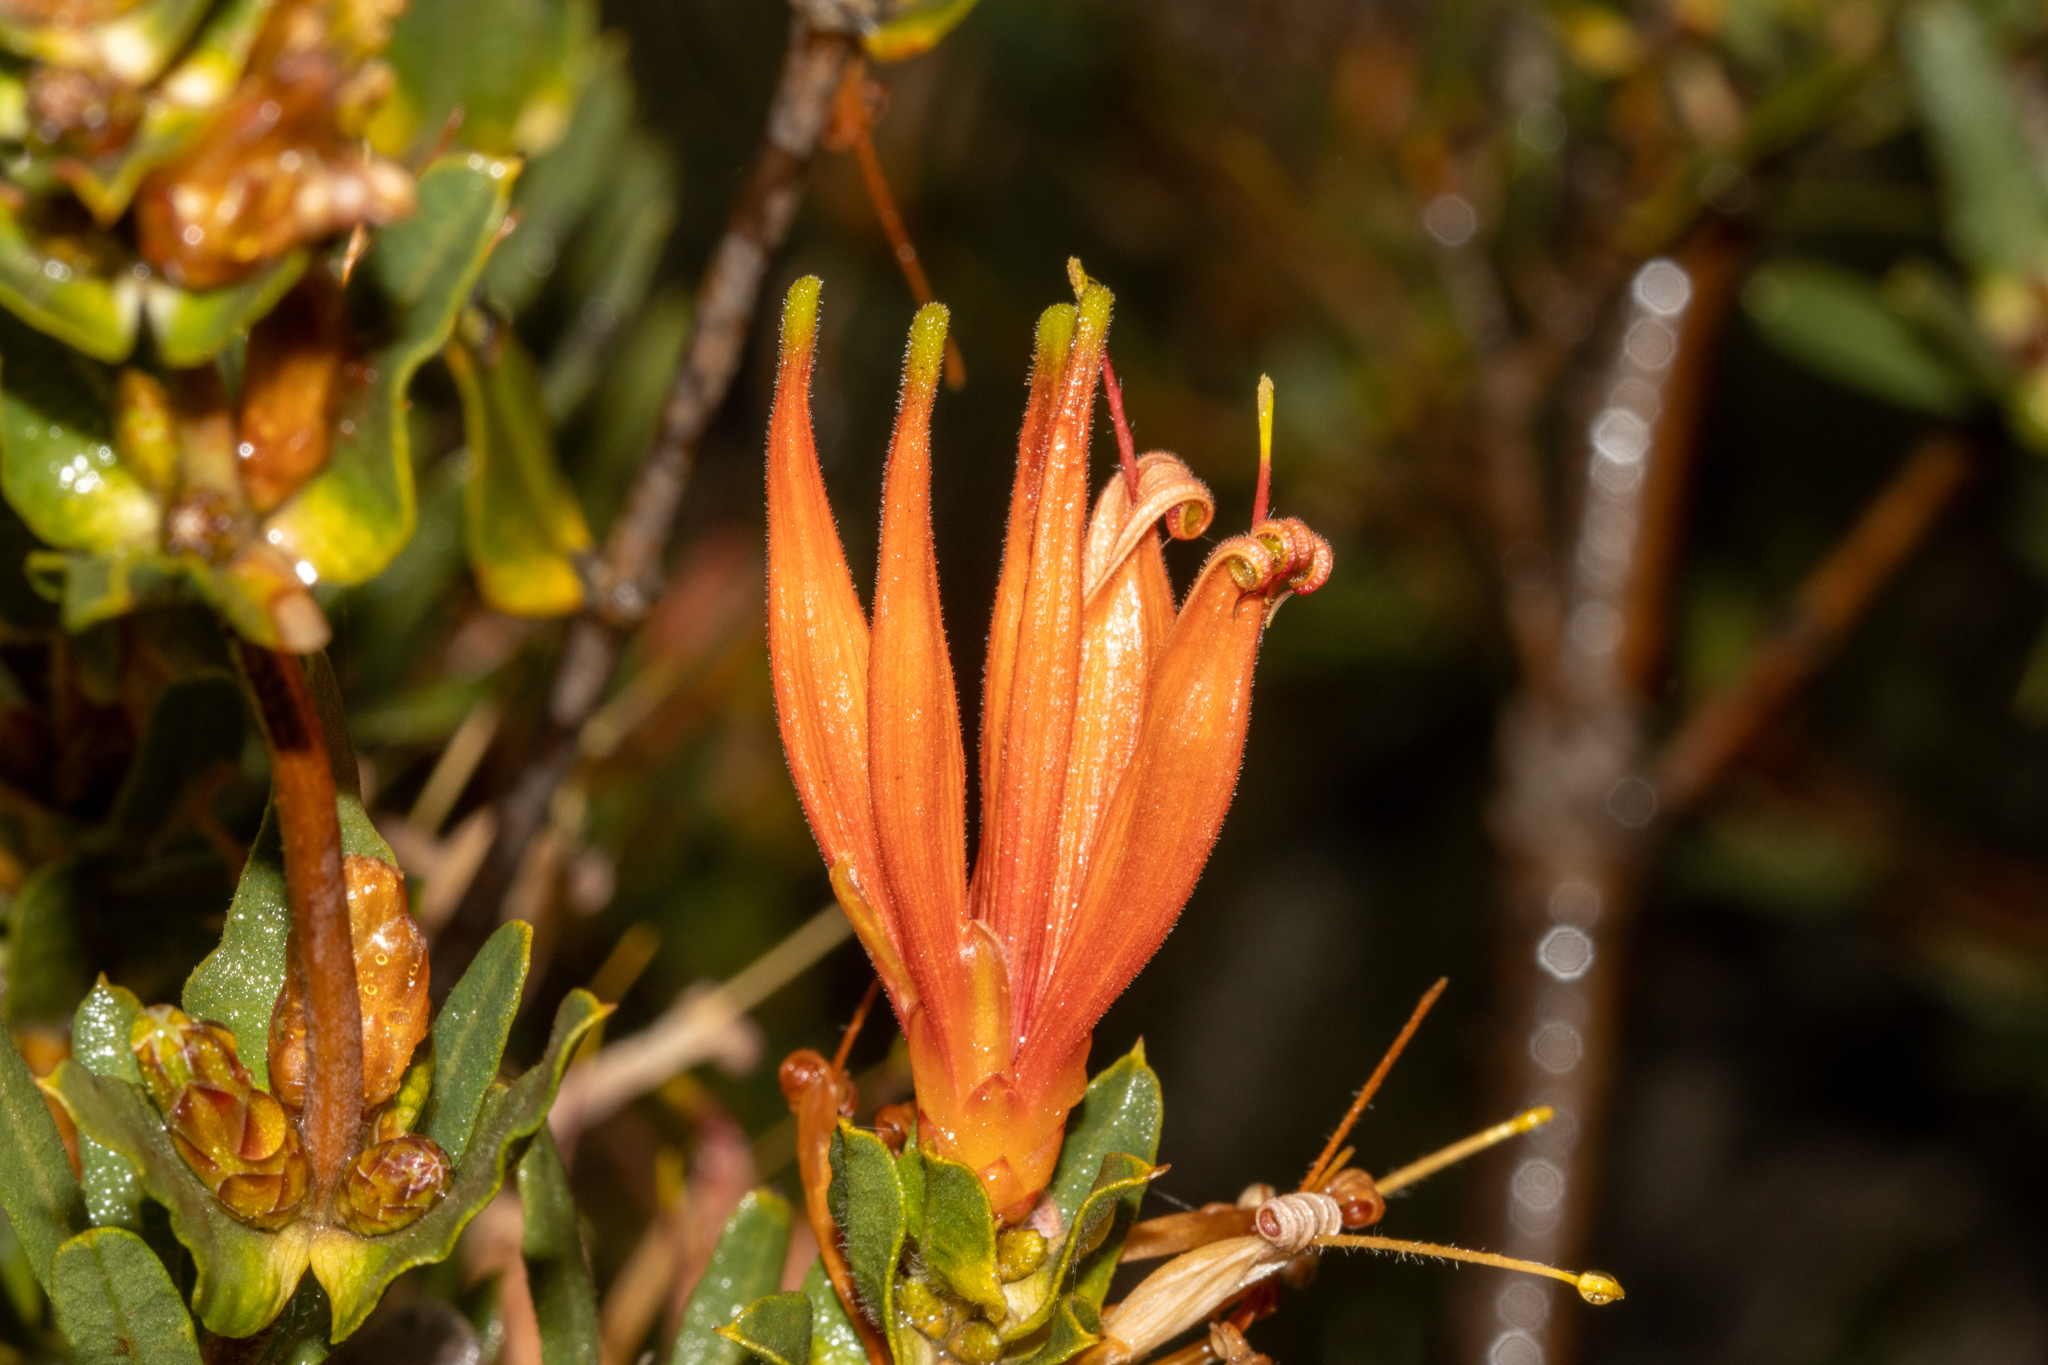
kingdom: Plantae
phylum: Tracheophyta
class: Magnoliopsida
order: Proteales
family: Proteaceae
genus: Lambertia
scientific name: Lambertia multiflora
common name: Many-flowered honeysuckle
